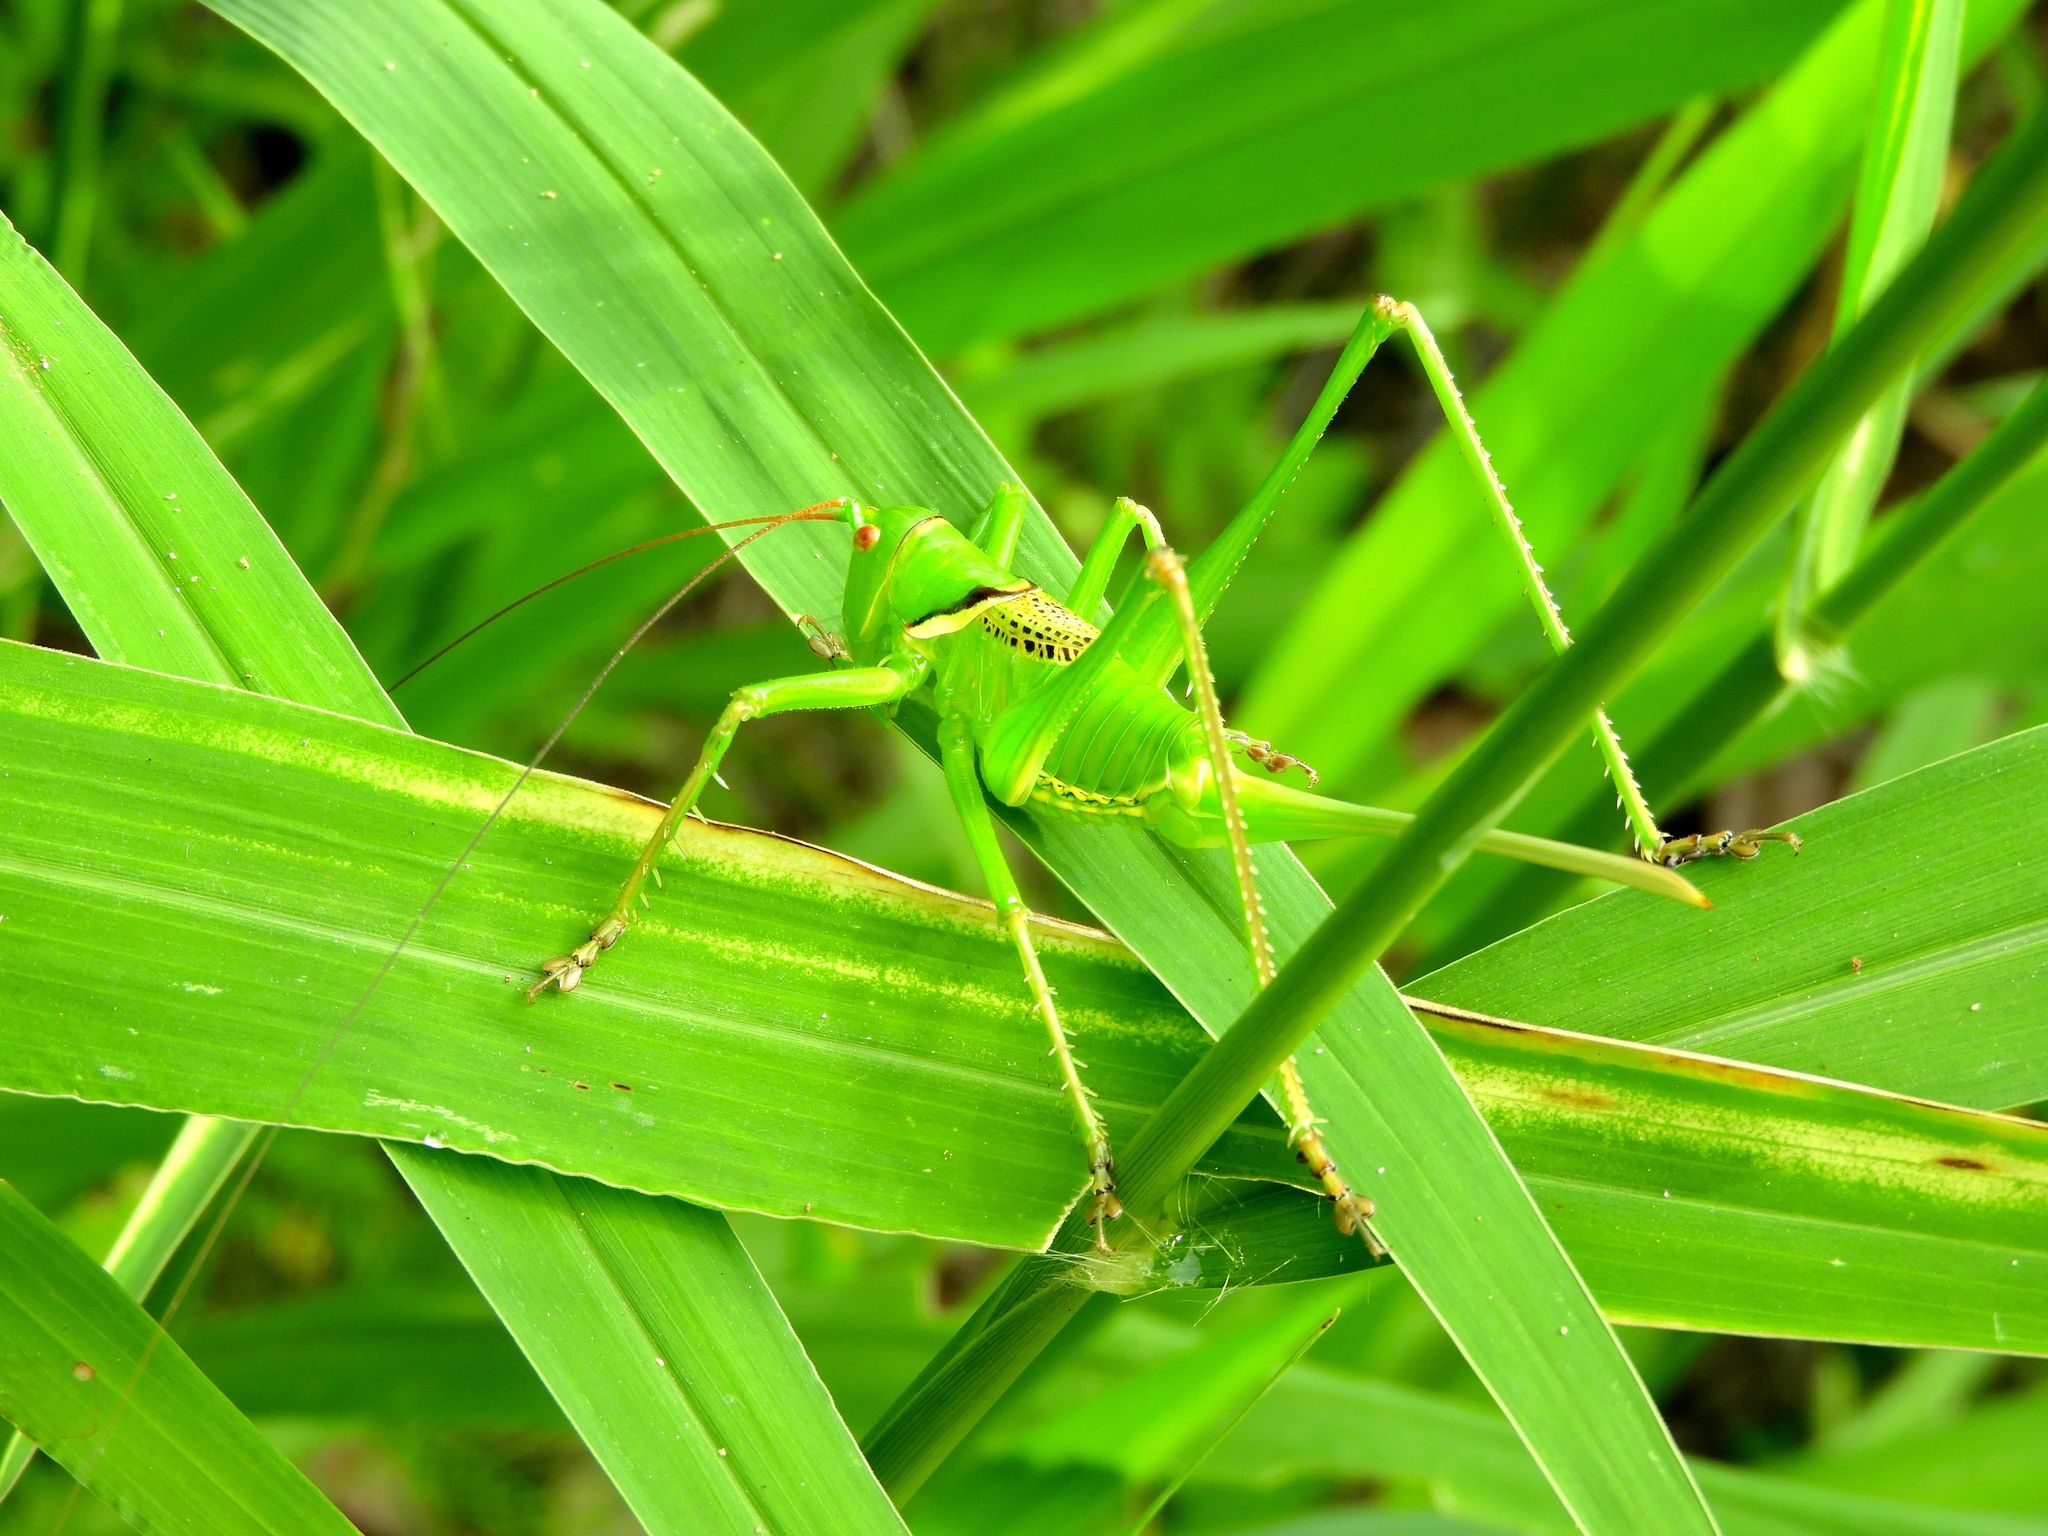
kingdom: Animalia
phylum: Arthropoda
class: Insecta
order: Orthoptera
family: Tettigoniidae
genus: Neobarrettia
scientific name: Neobarrettia sinaloae
